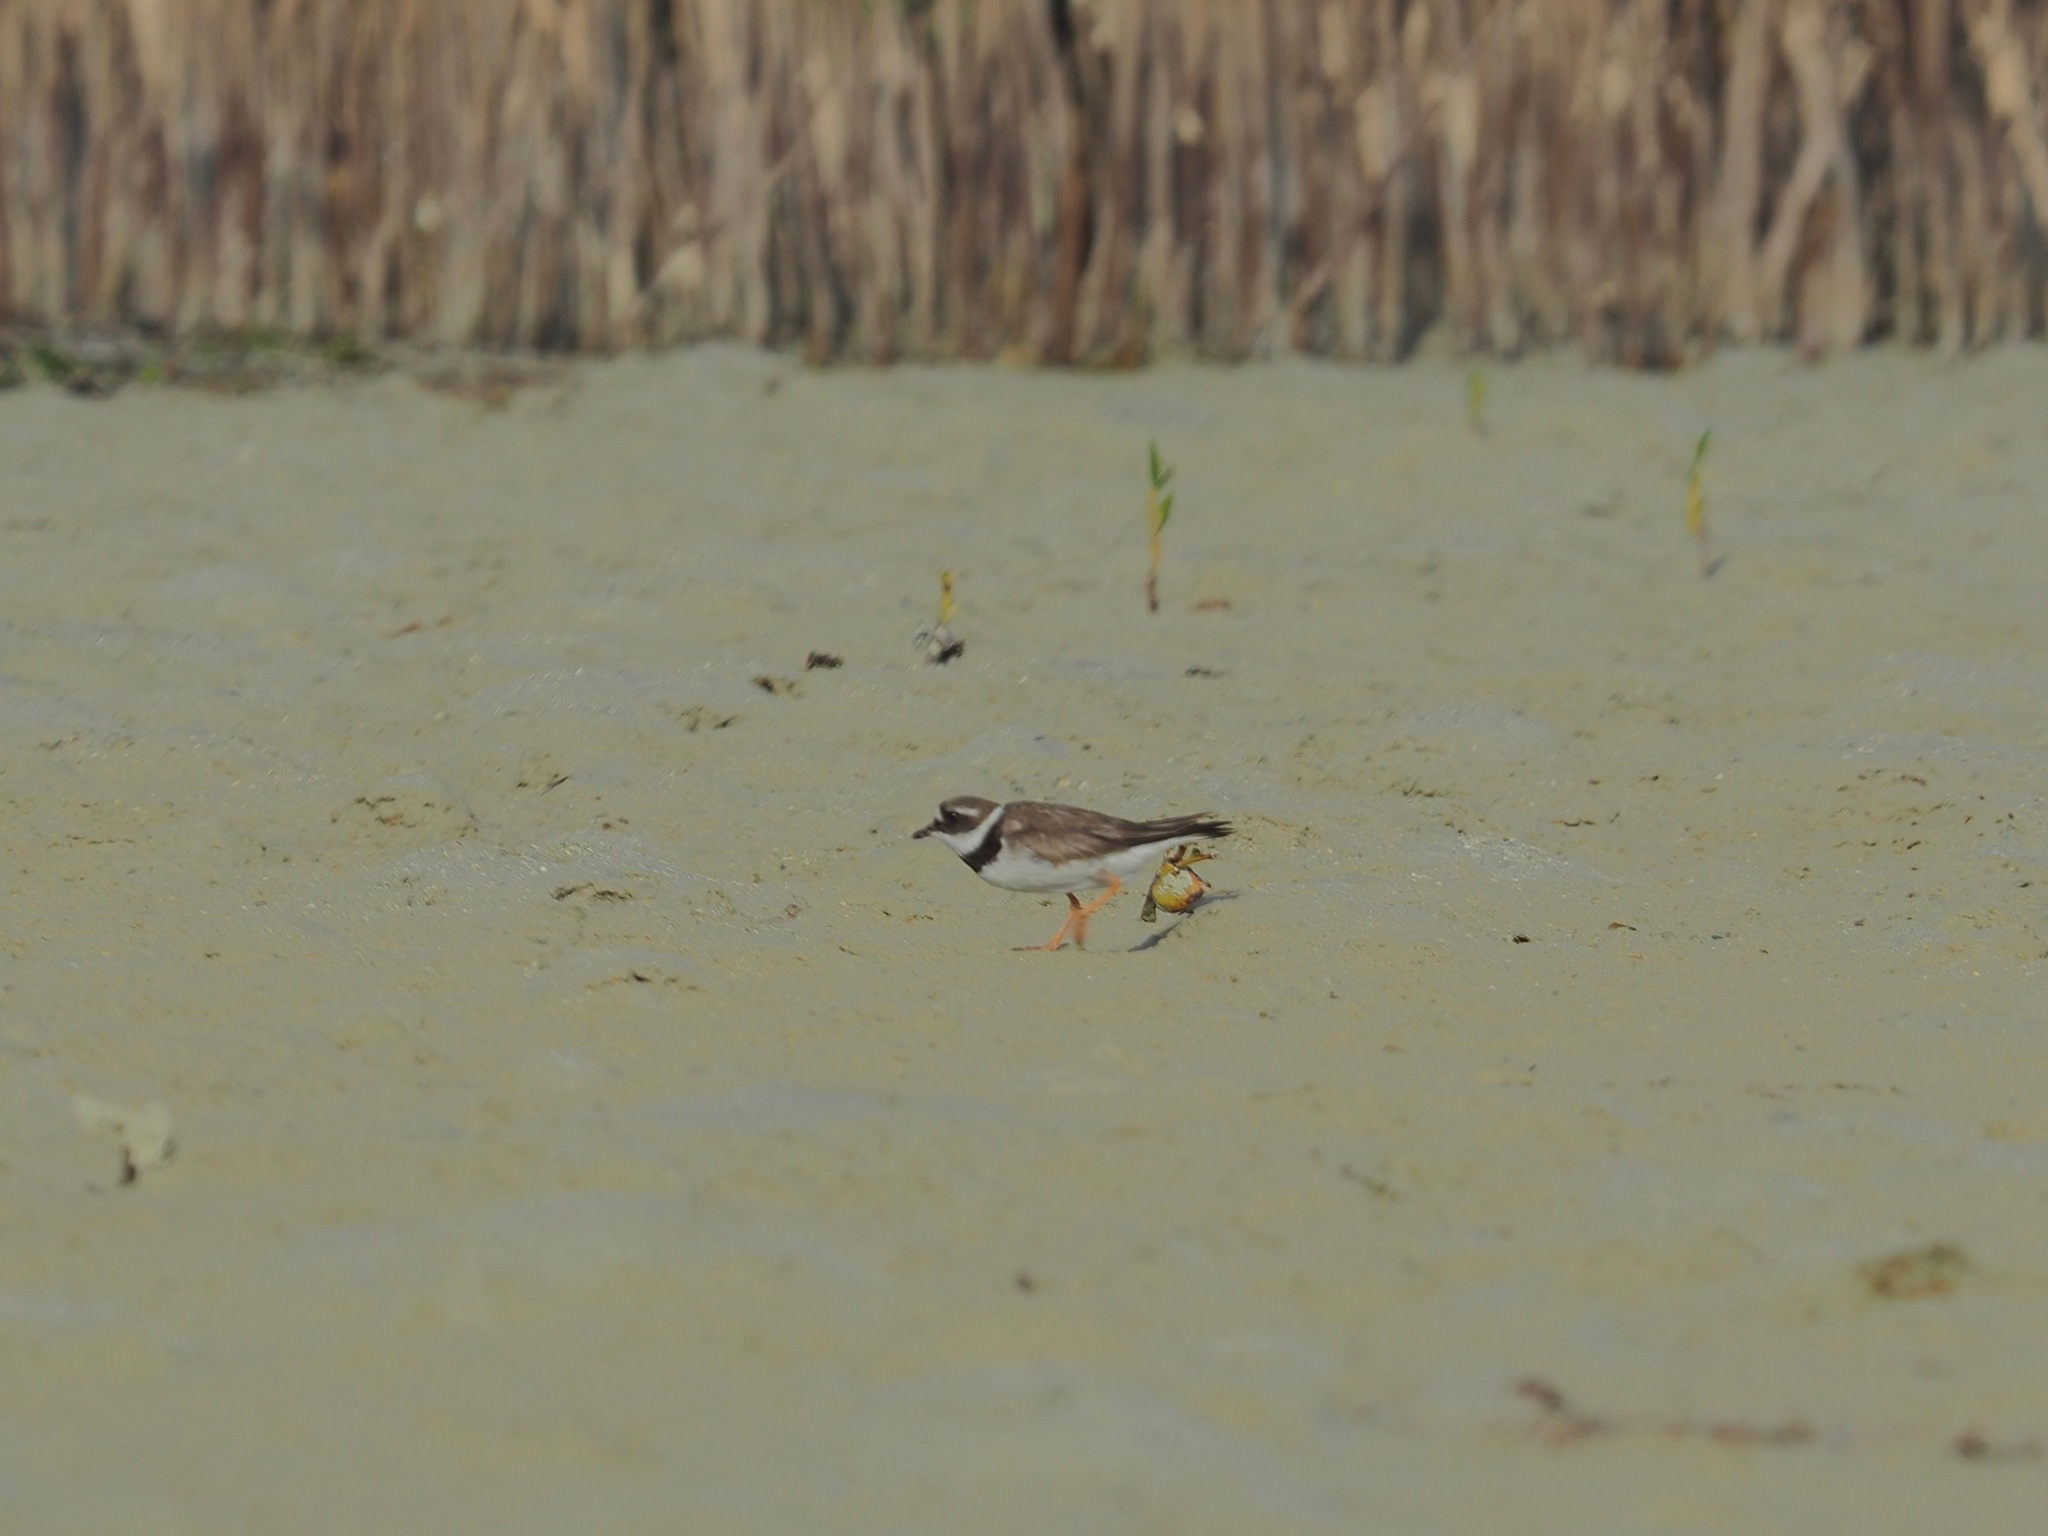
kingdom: Animalia
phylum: Chordata
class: Aves
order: Charadriiformes
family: Charadriidae
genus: Charadrius
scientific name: Charadrius hiaticula
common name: Common ringed plover
